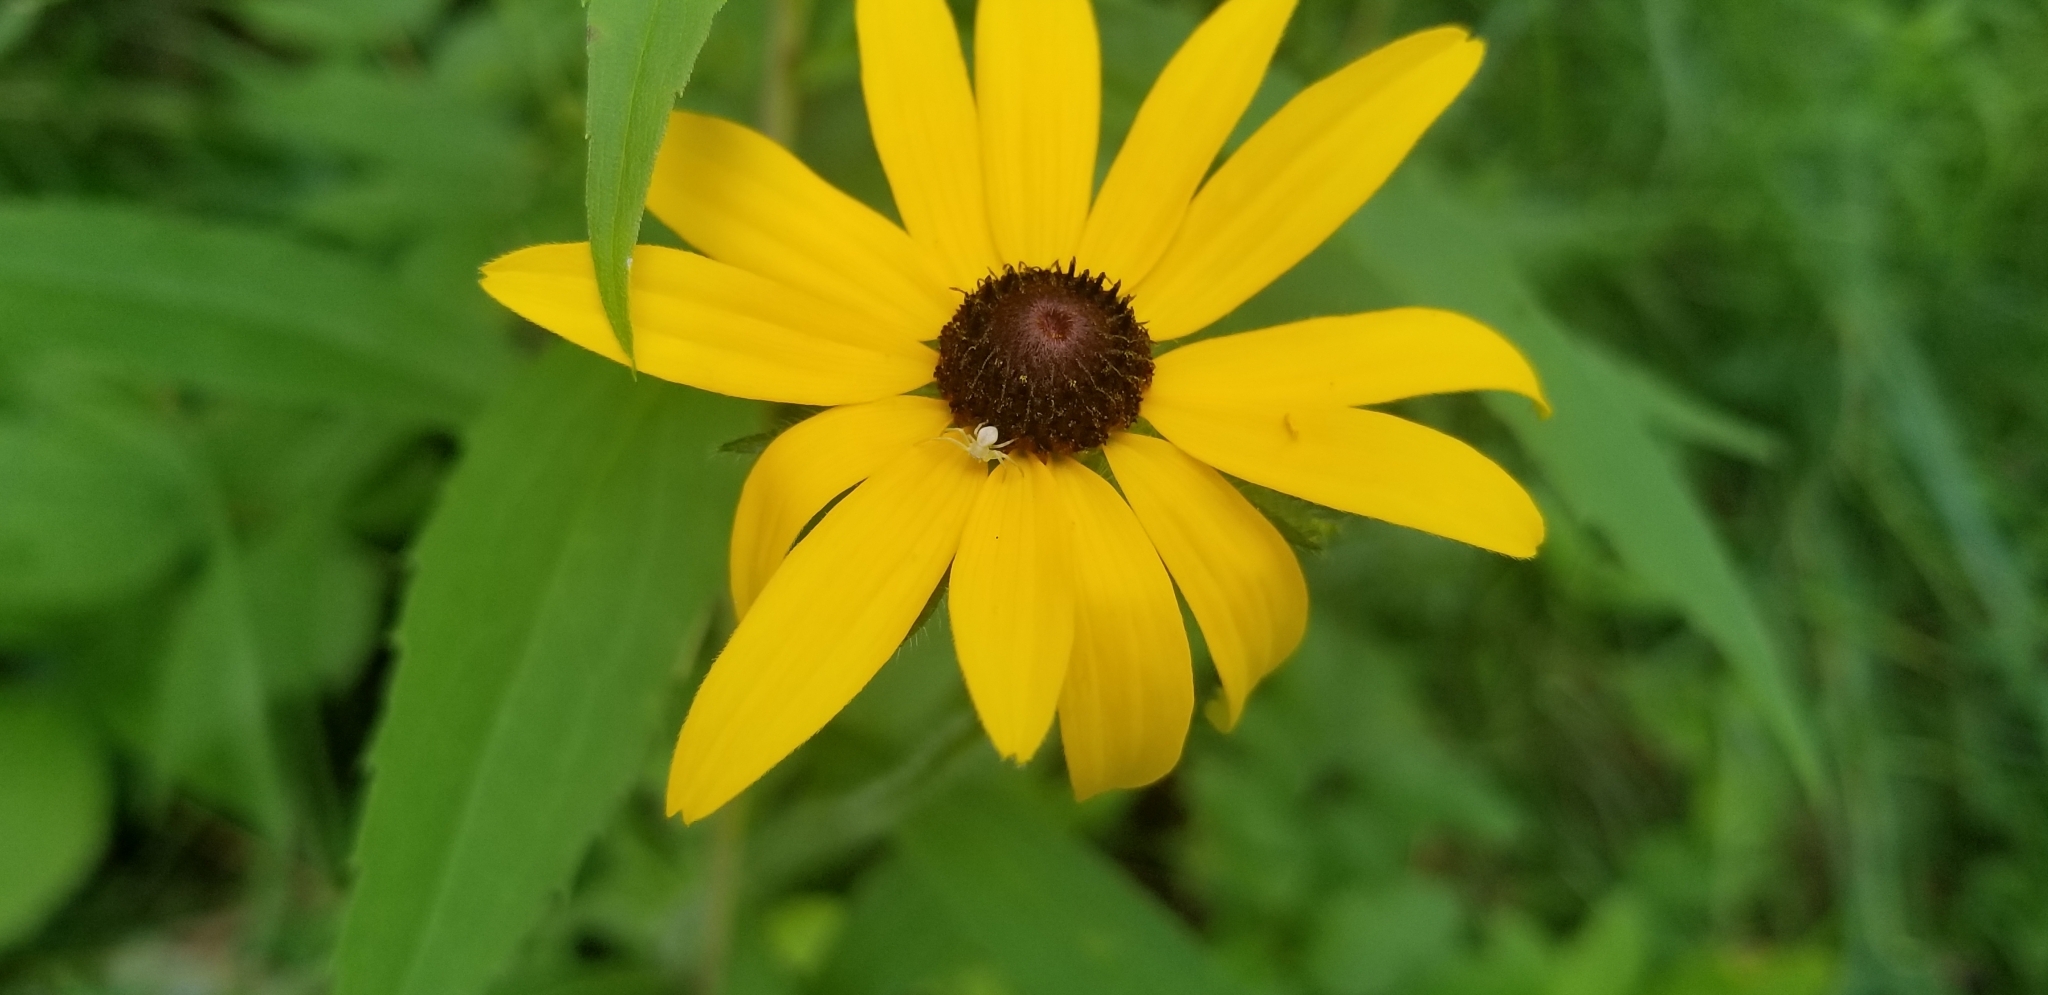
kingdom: Plantae
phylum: Tracheophyta
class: Magnoliopsida
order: Asterales
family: Asteraceae
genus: Rudbeckia
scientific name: Rudbeckia hirta
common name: Black-eyed-susan
